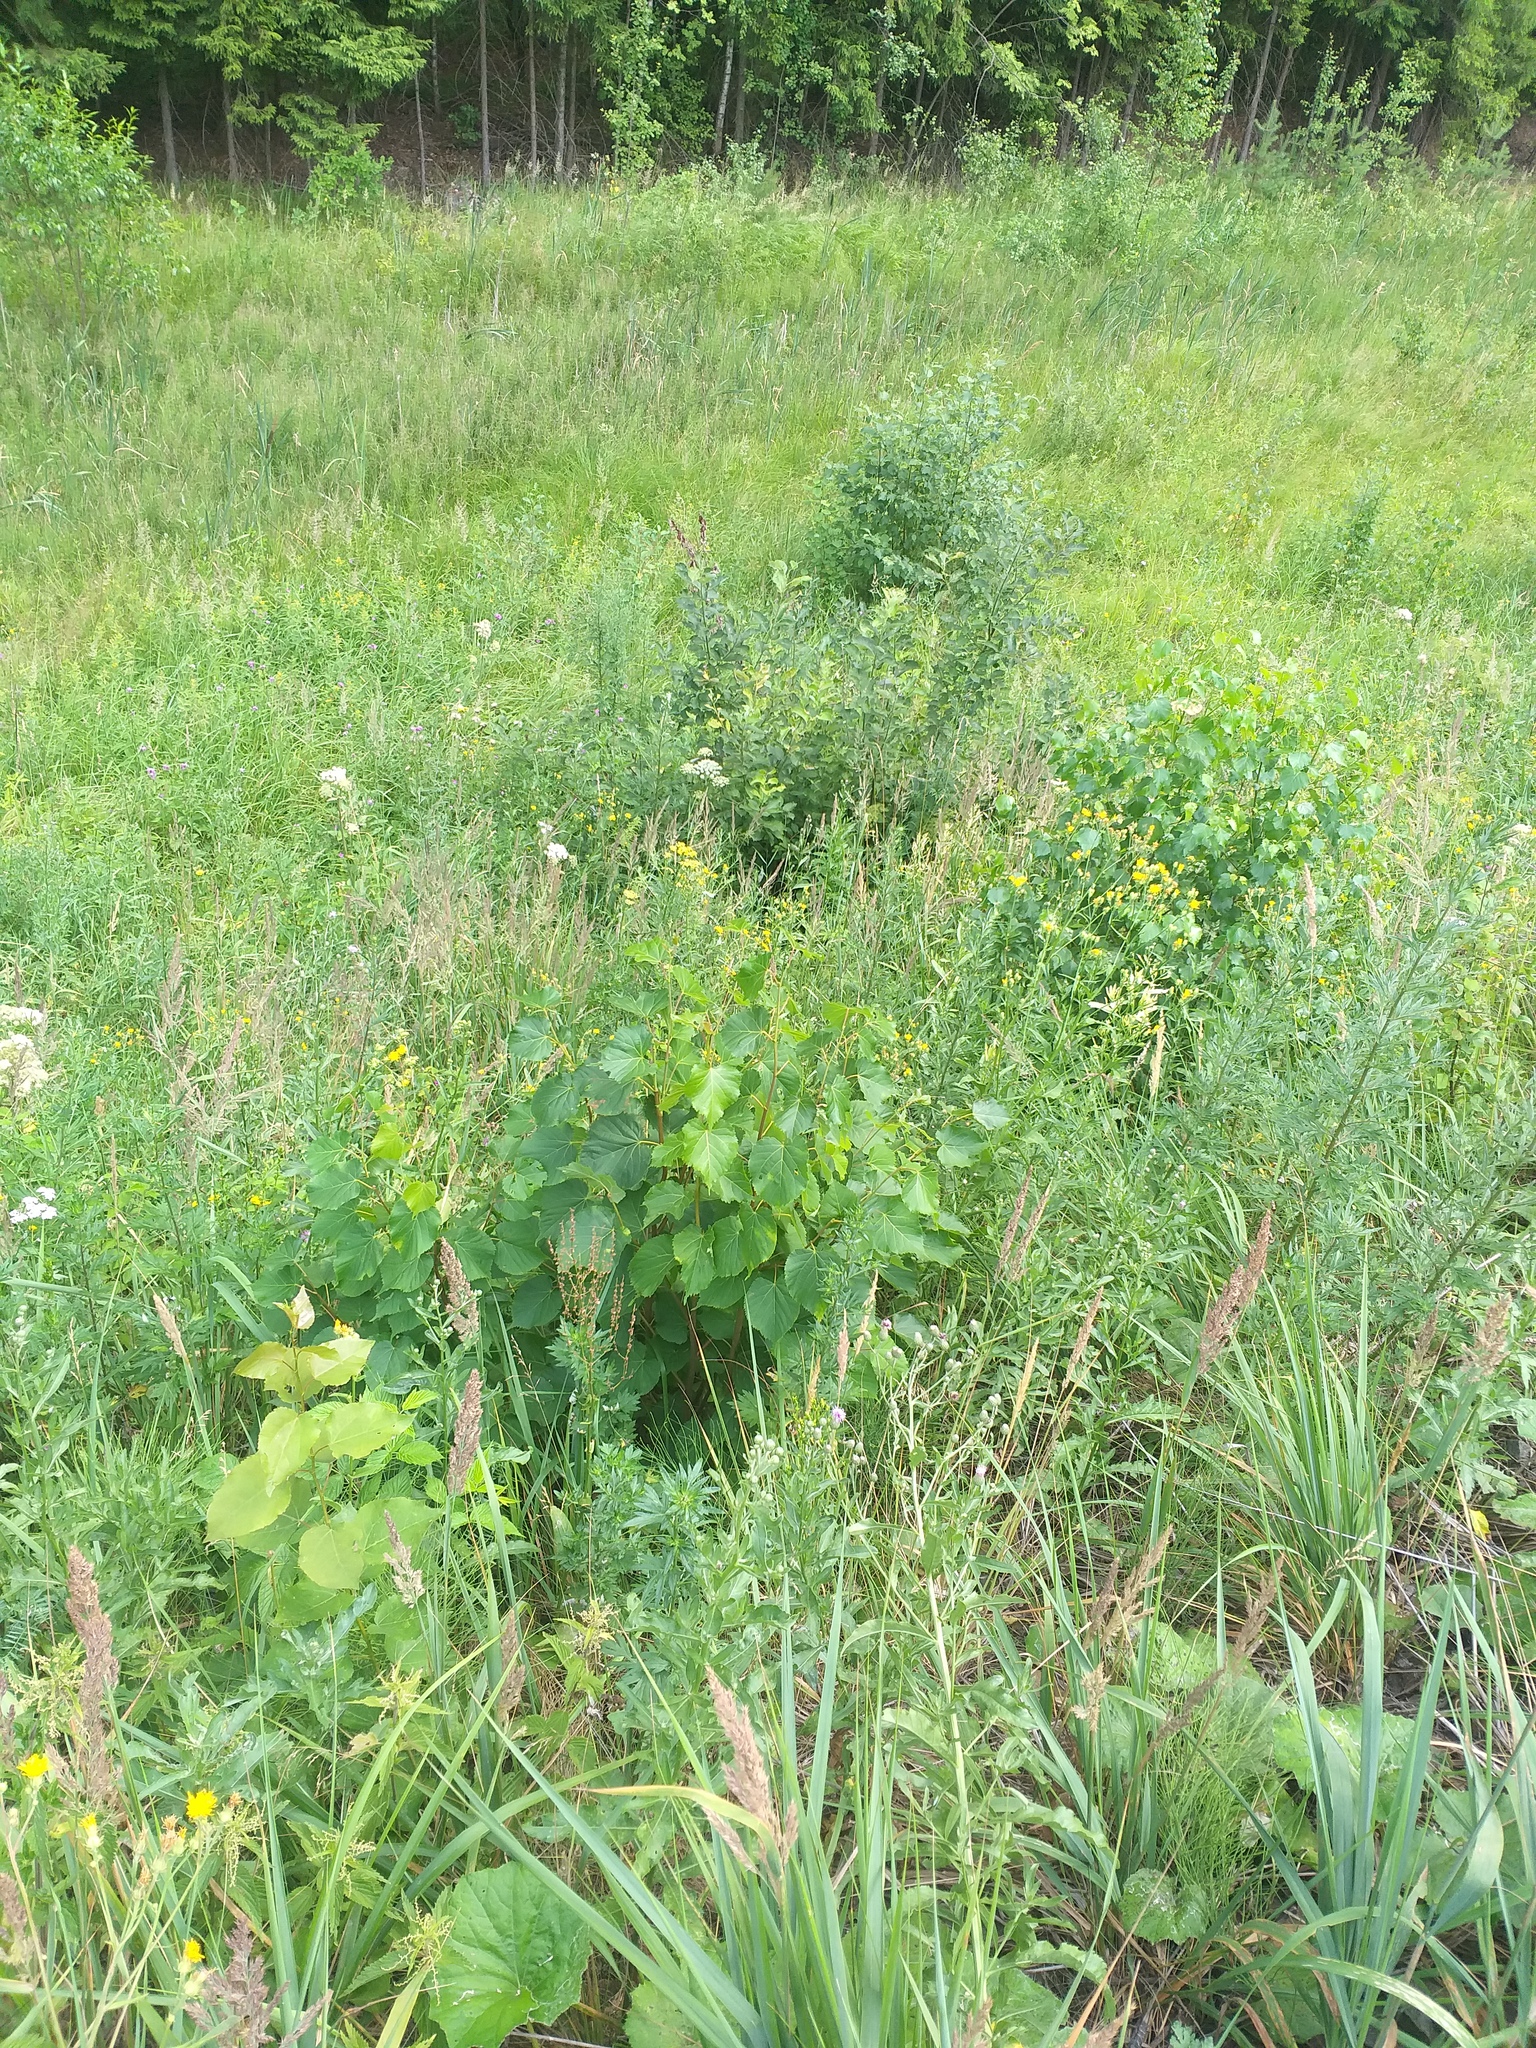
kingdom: Plantae
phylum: Tracheophyta
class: Magnoliopsida
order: Malvales
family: Malvaceae
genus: Tilia
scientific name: Tilia cordata
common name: Small-leaved lime
